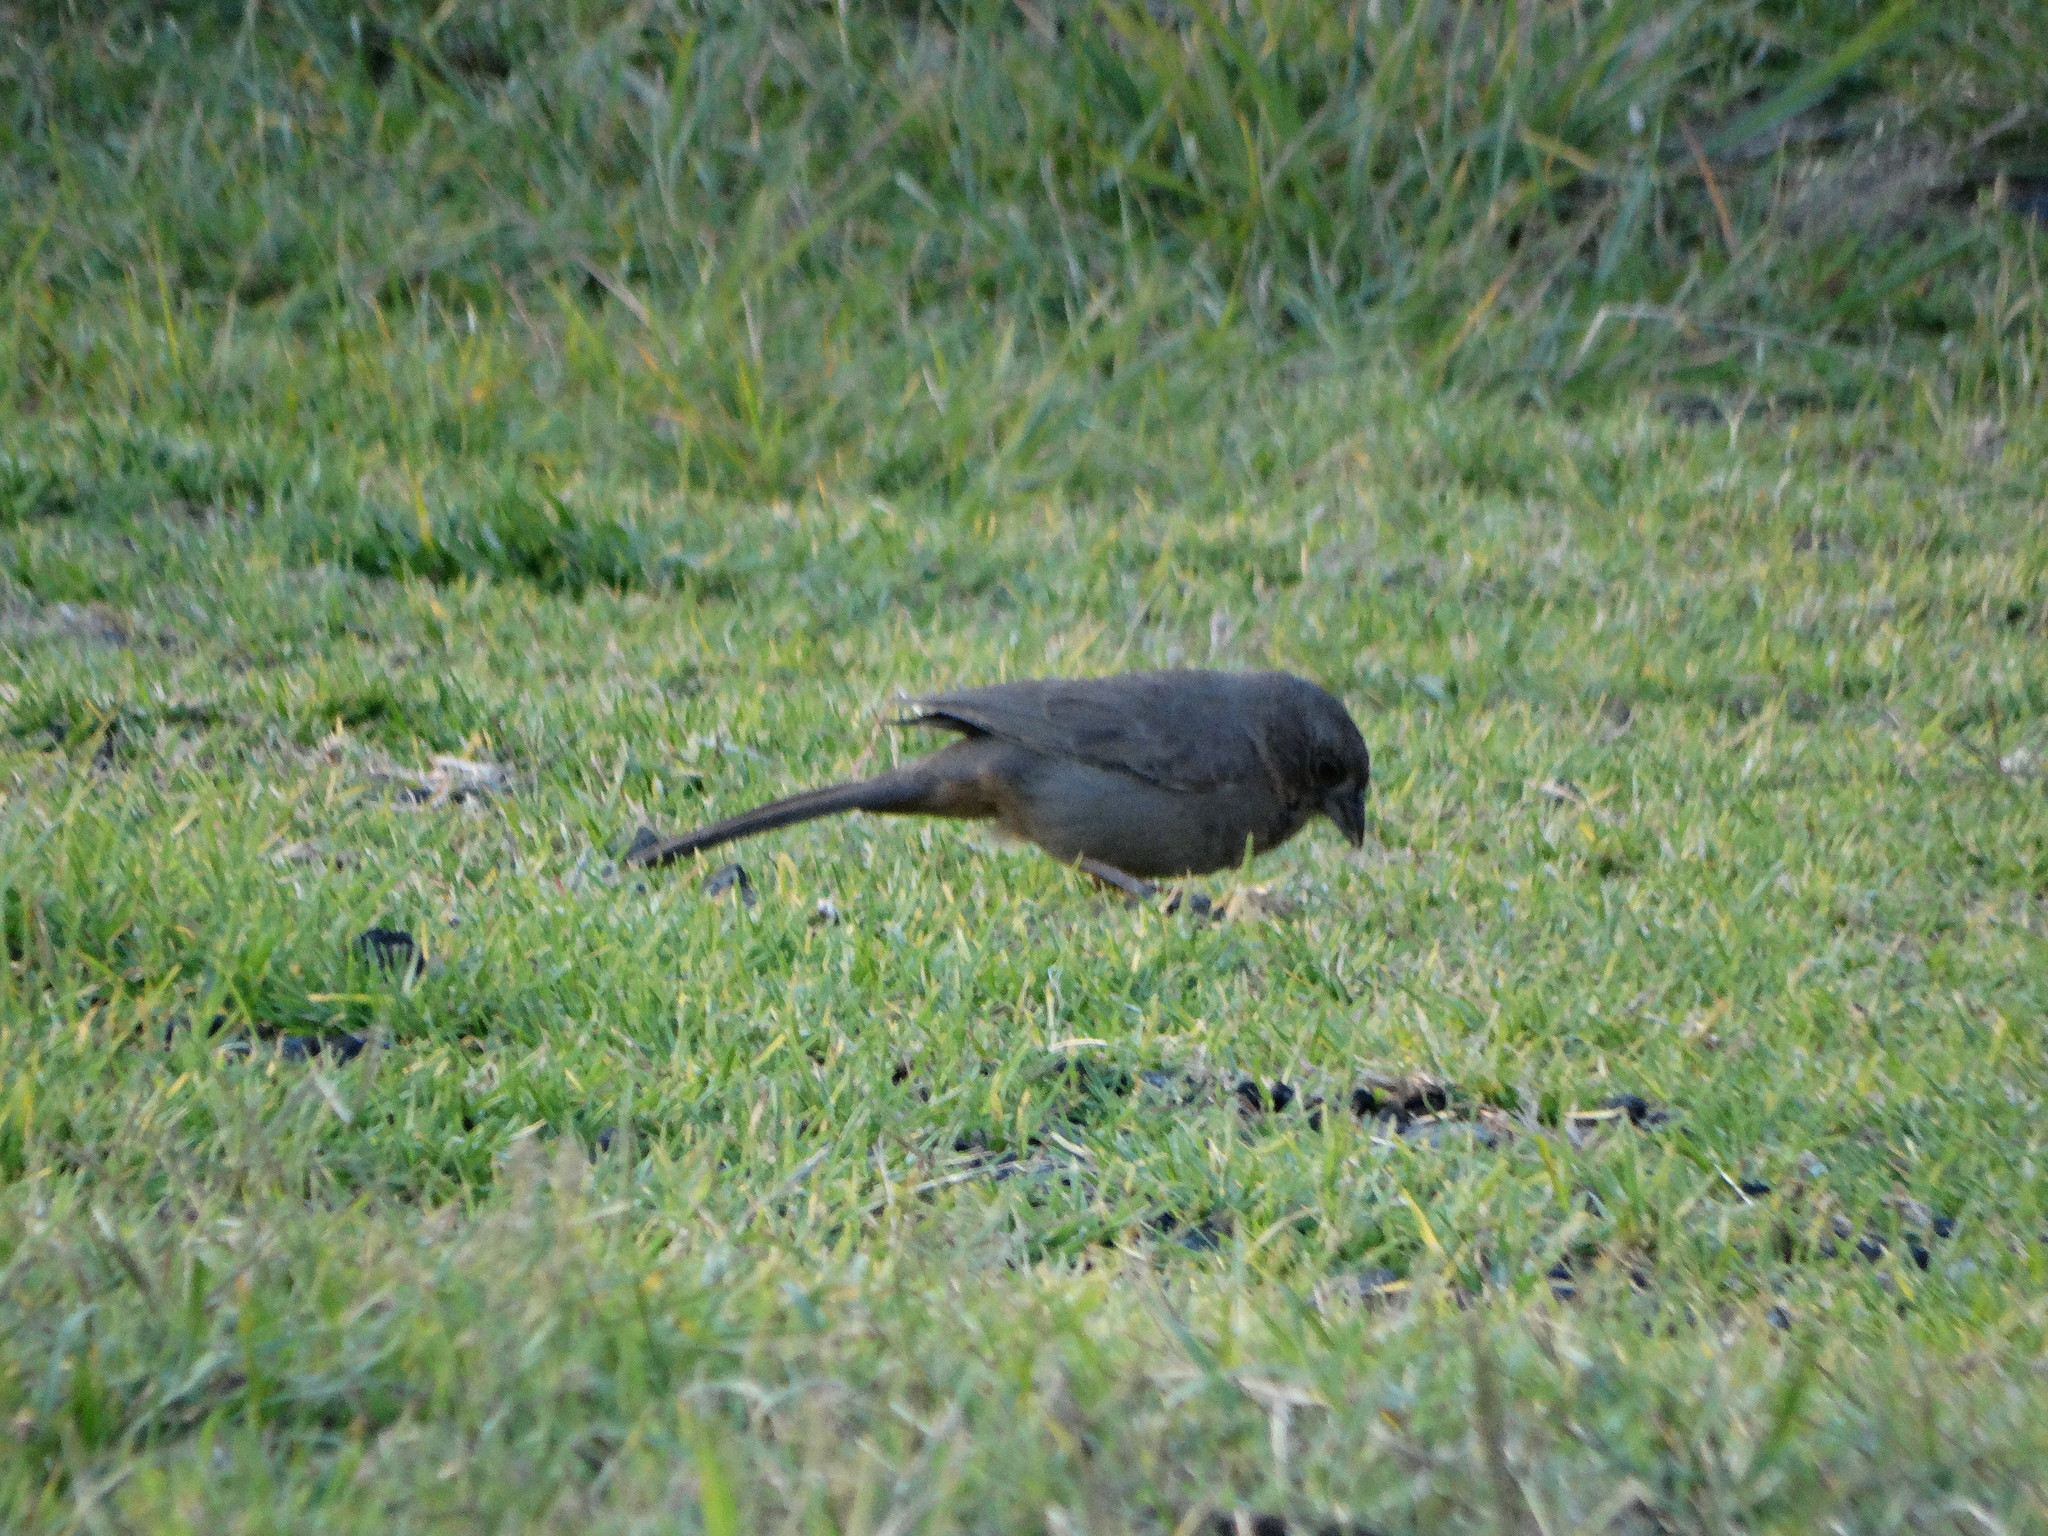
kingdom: Animalia
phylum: Chordata
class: Aves
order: Passeriformes
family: Passerellidae
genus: Melozone
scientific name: Melozone fusca
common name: Canyon towhee
